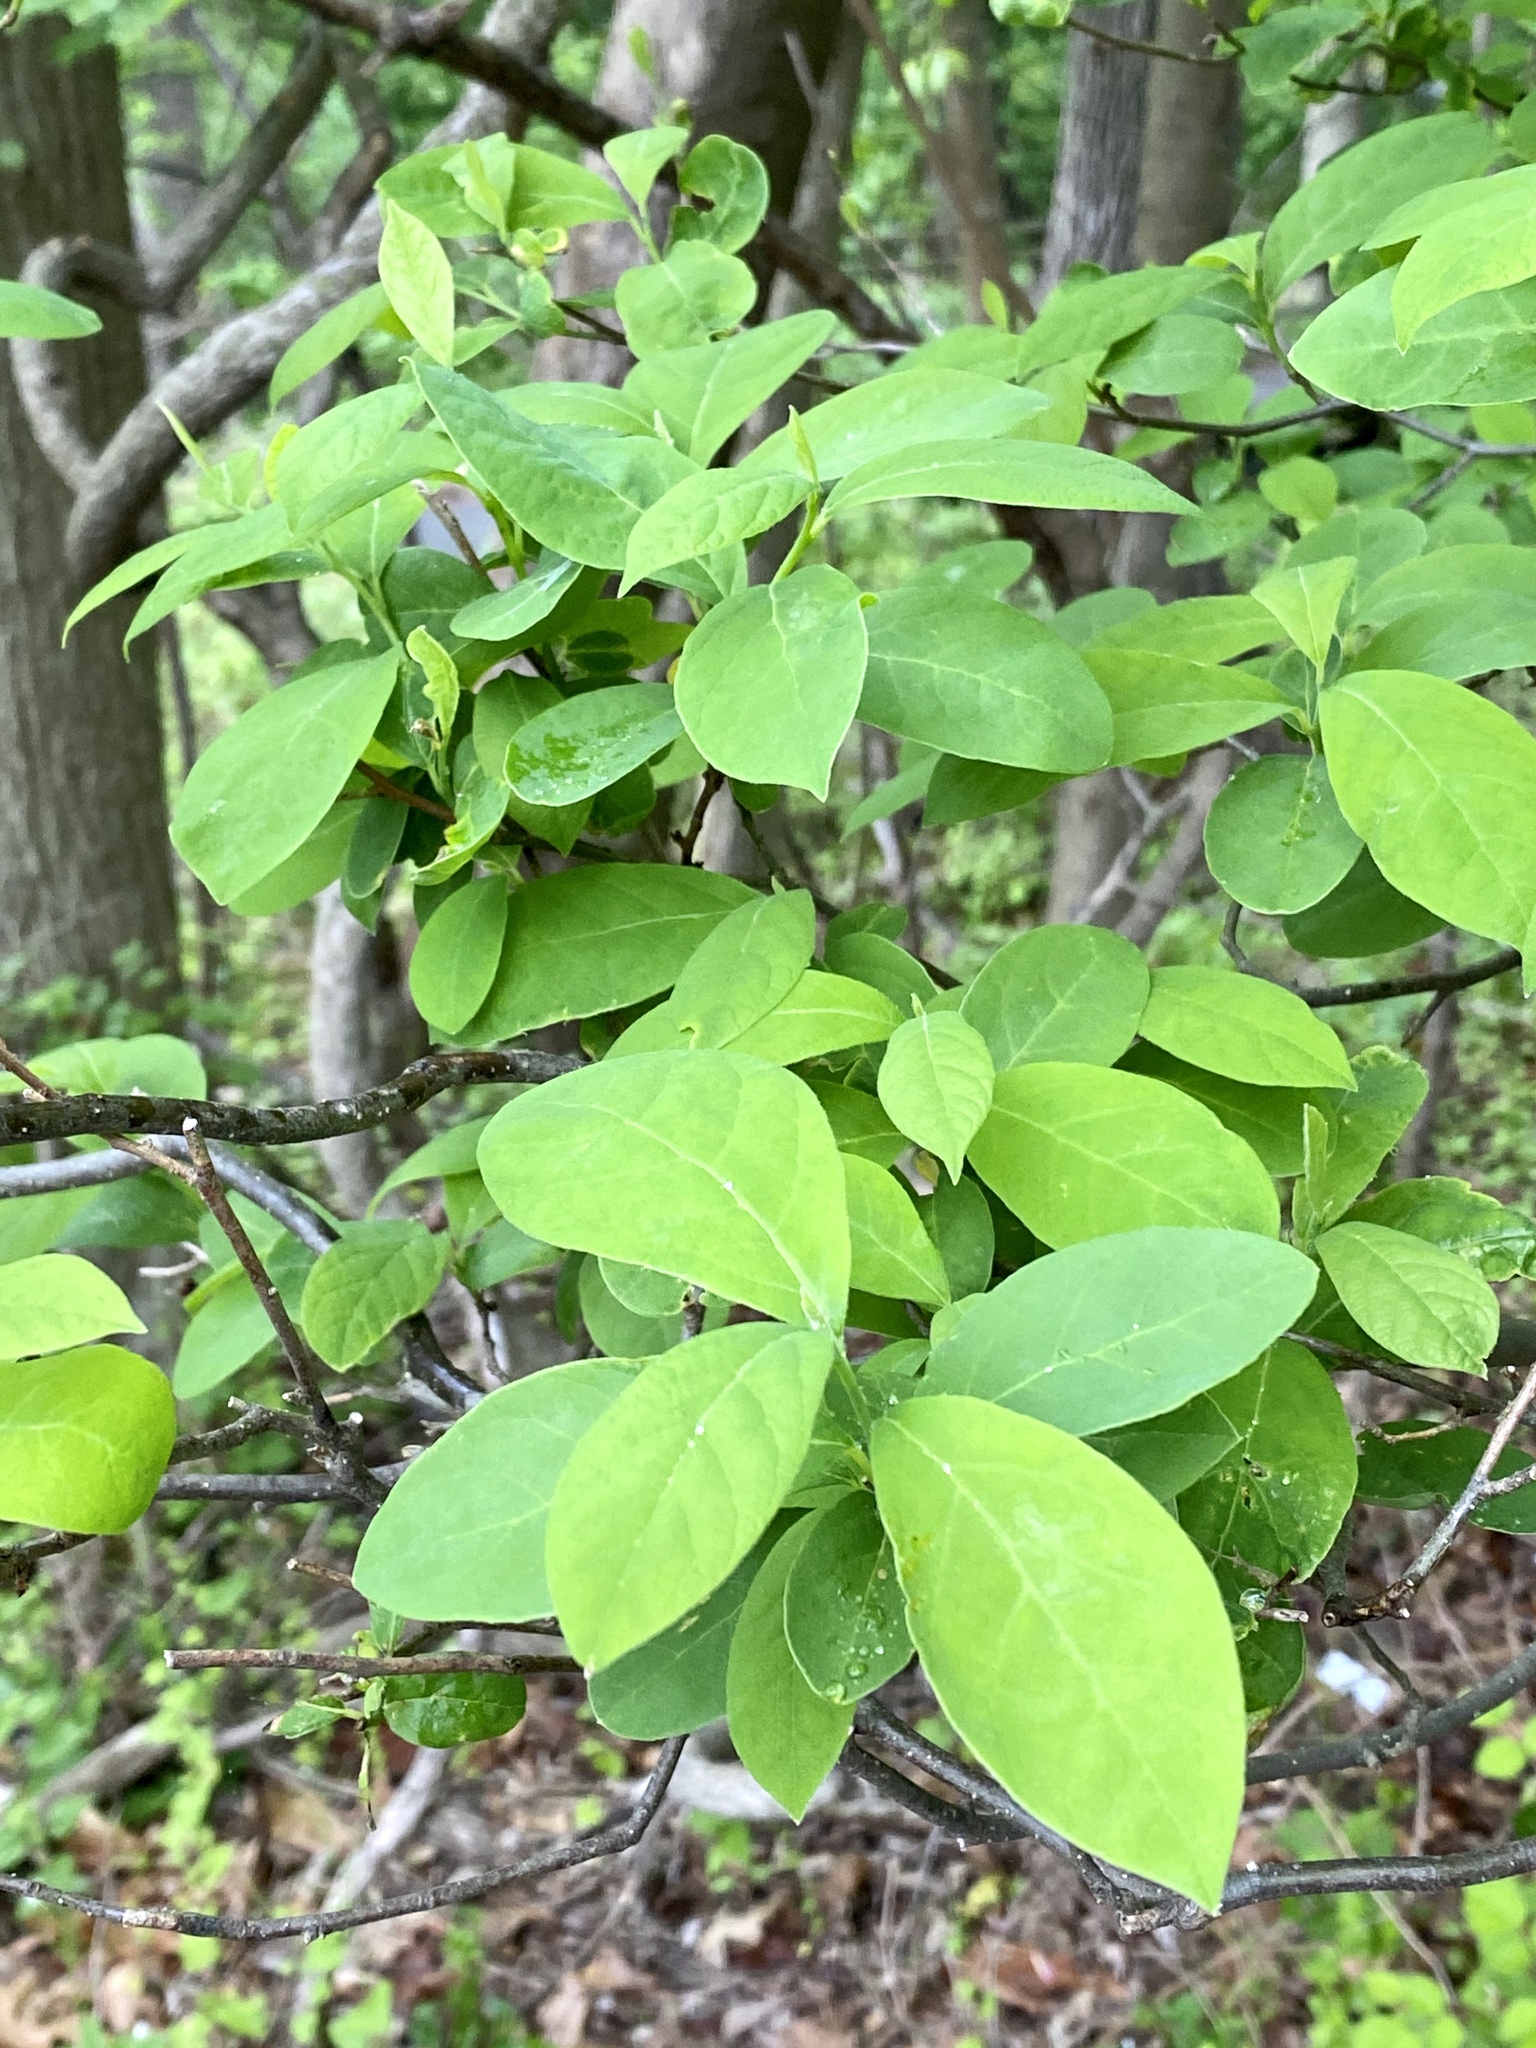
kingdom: Plantae
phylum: Tracheophyta
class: Magnoliopsida
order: Laurales
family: Lauraceae
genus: Lindera
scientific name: Lindera benzoin
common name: Spicebush
